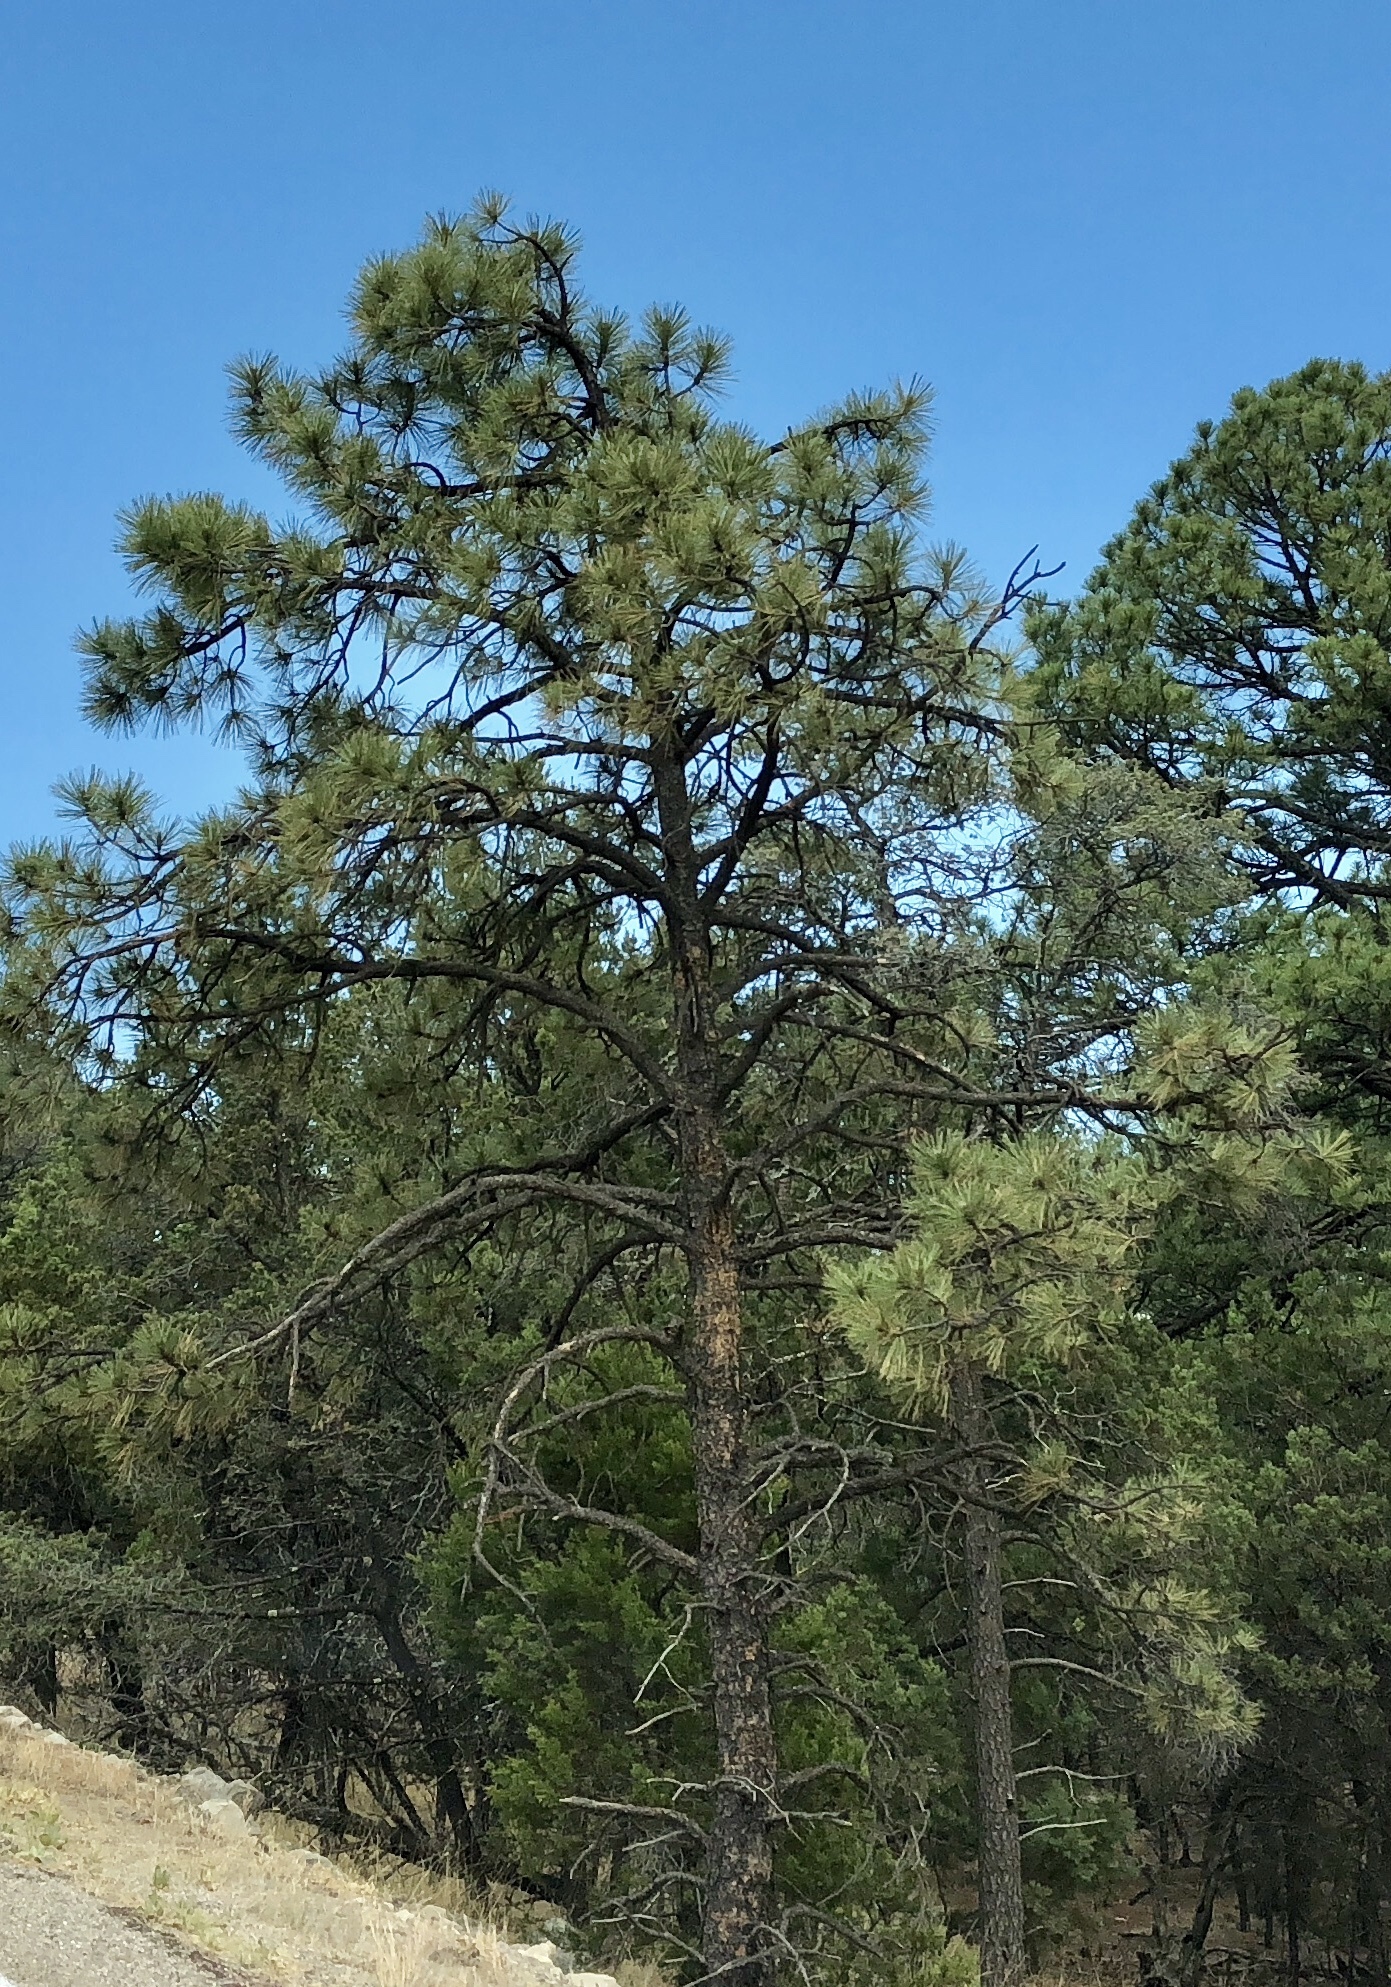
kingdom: Plantae
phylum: Tracheophyta
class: Pinopsida
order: Pinales
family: Pinaceae
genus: Pinus
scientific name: Pinus ponderosa
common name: Western yellow-pine
